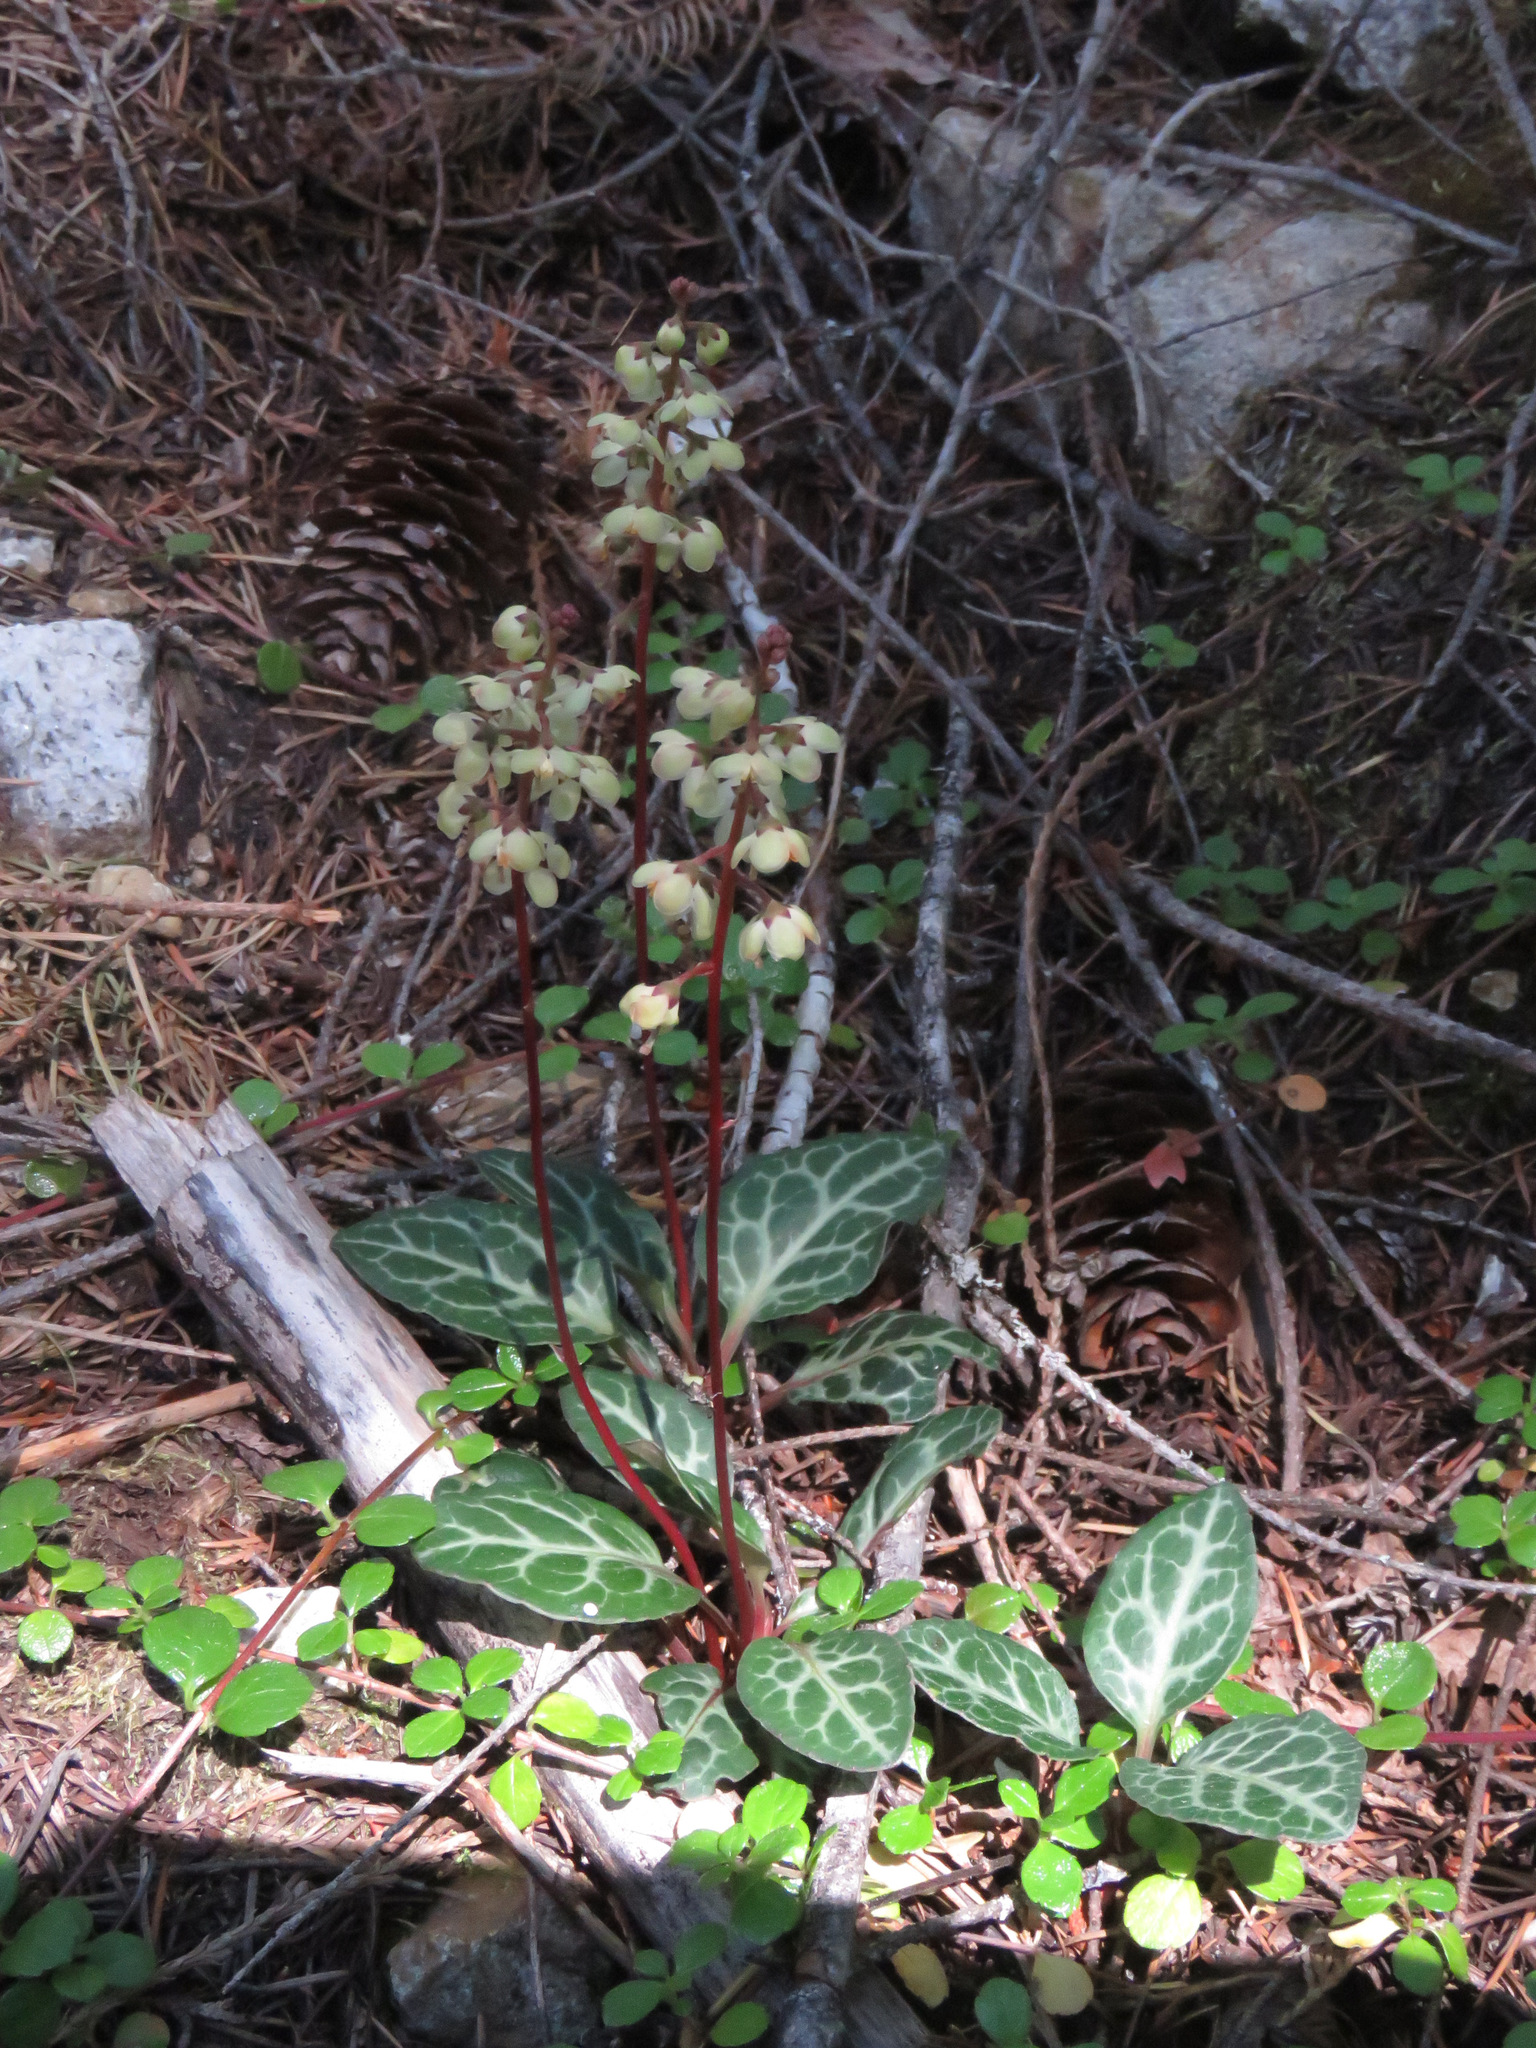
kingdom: Plantae
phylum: Tracheophyta
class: Magnoliopsida
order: Ericales
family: Ericaceae
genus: Pyrola
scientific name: Pyrola picta
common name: White-vein wintergreen
